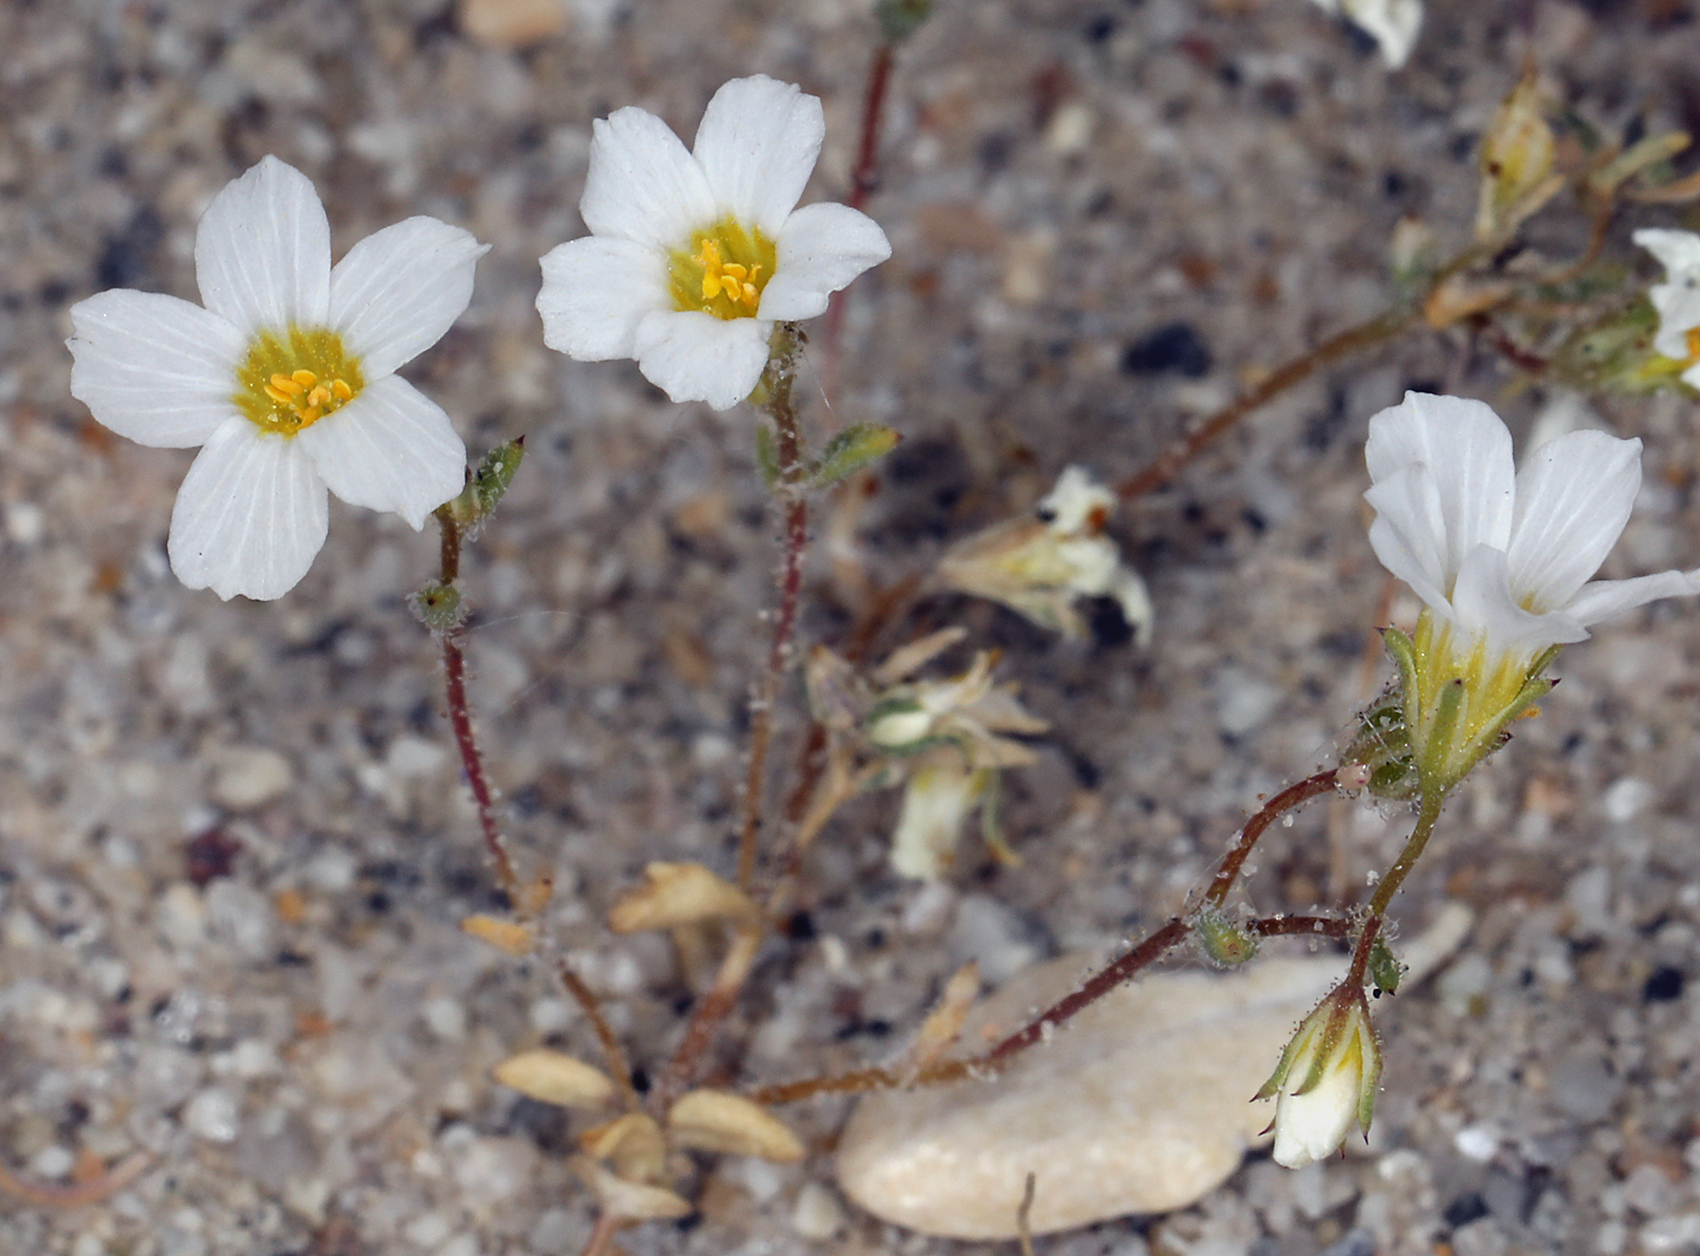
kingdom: Plantae
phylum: Tracheophyta
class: Magnoliopsida
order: Ericales
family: Polemoniaceae
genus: Linanthus
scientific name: Linanthus inyoensis
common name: Inyo gilia
